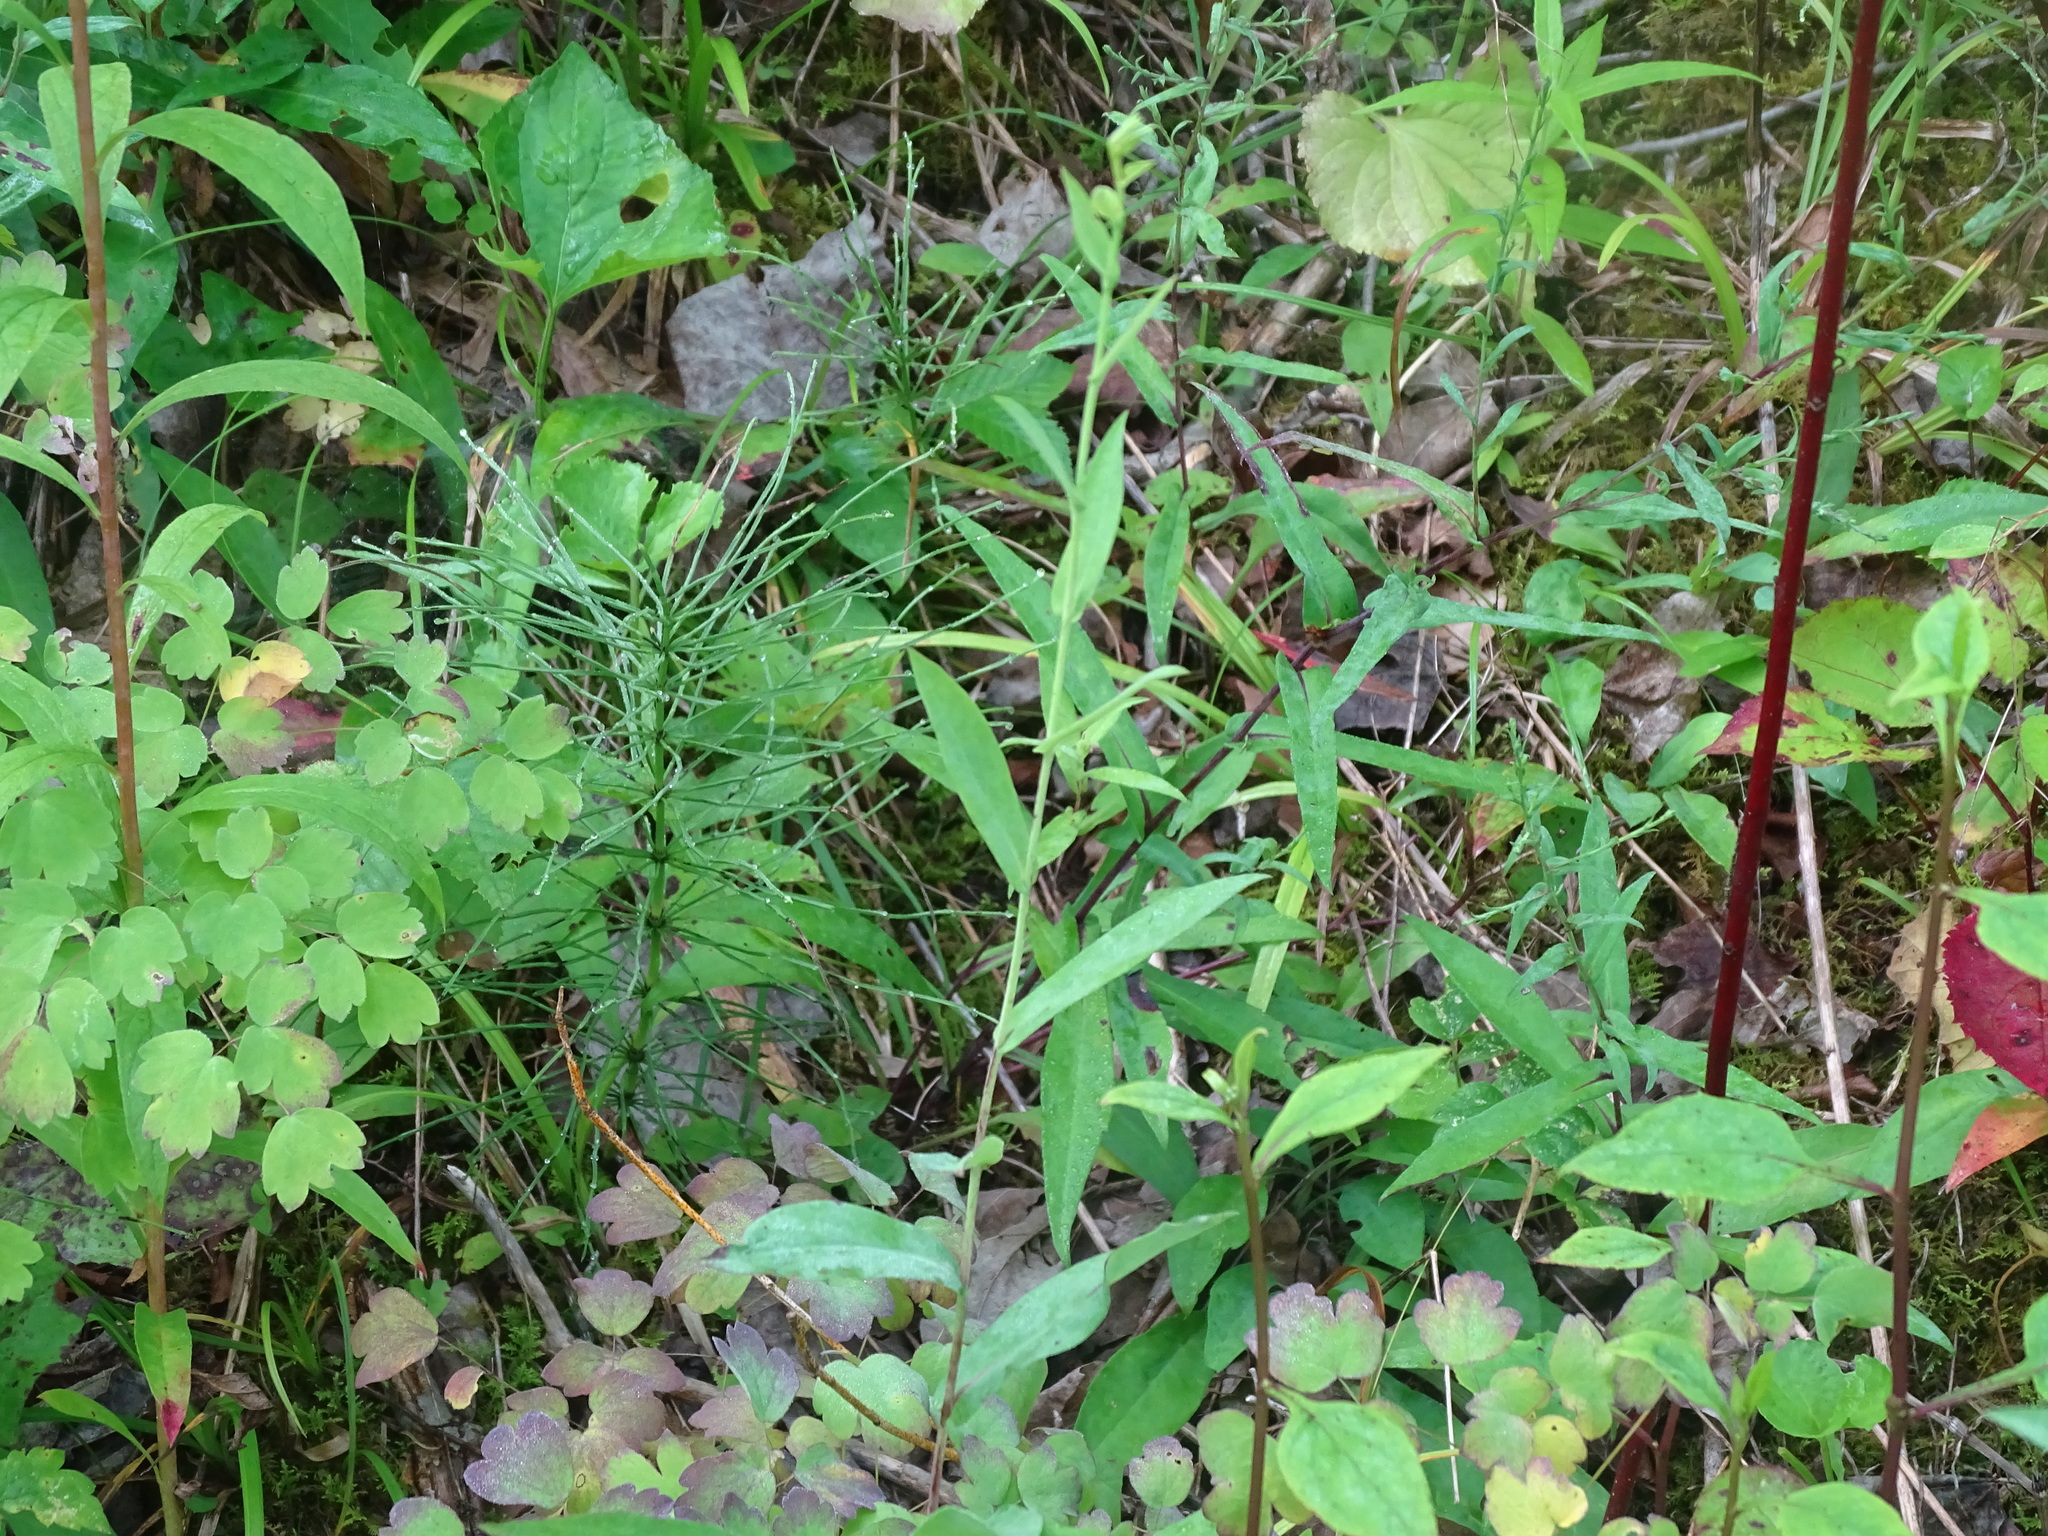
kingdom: Plantae
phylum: Tracheophyta
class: Magnoliopsida
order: Asterales
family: Asteraceae
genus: Symphyotrichum
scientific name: Symphyotrichum laeve
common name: Glaucous aster
